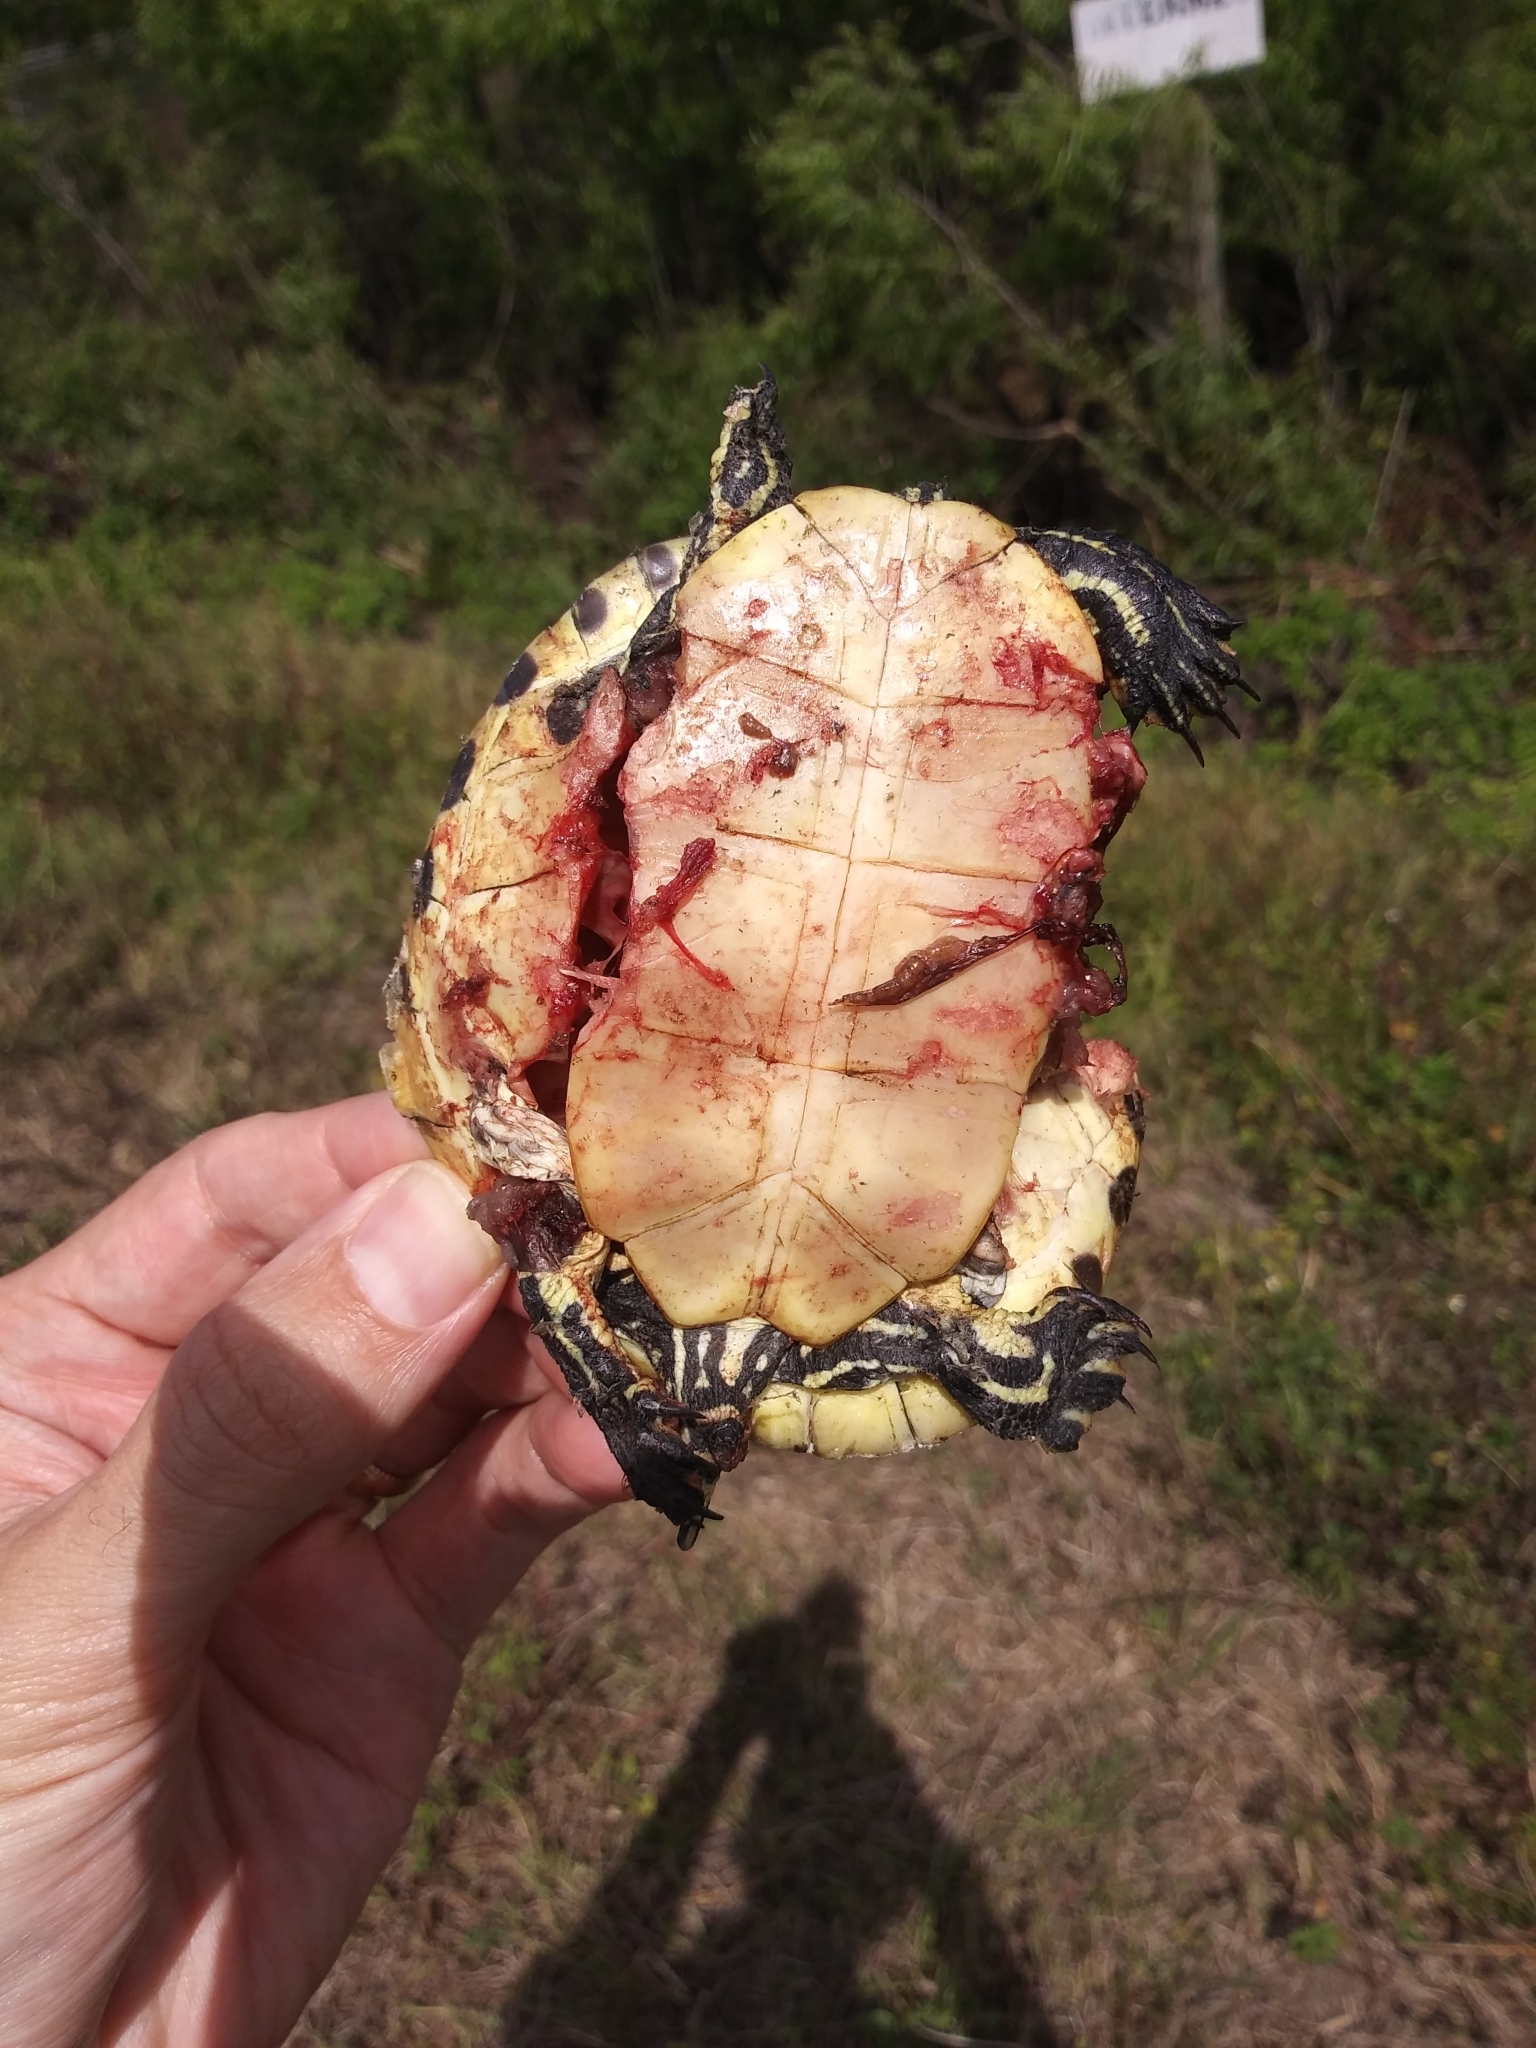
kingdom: Animalia
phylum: Chordata
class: Testudines
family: Emydidae
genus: Pseudemys
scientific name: Pseudemys peninsularis
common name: Peninsula cooter
